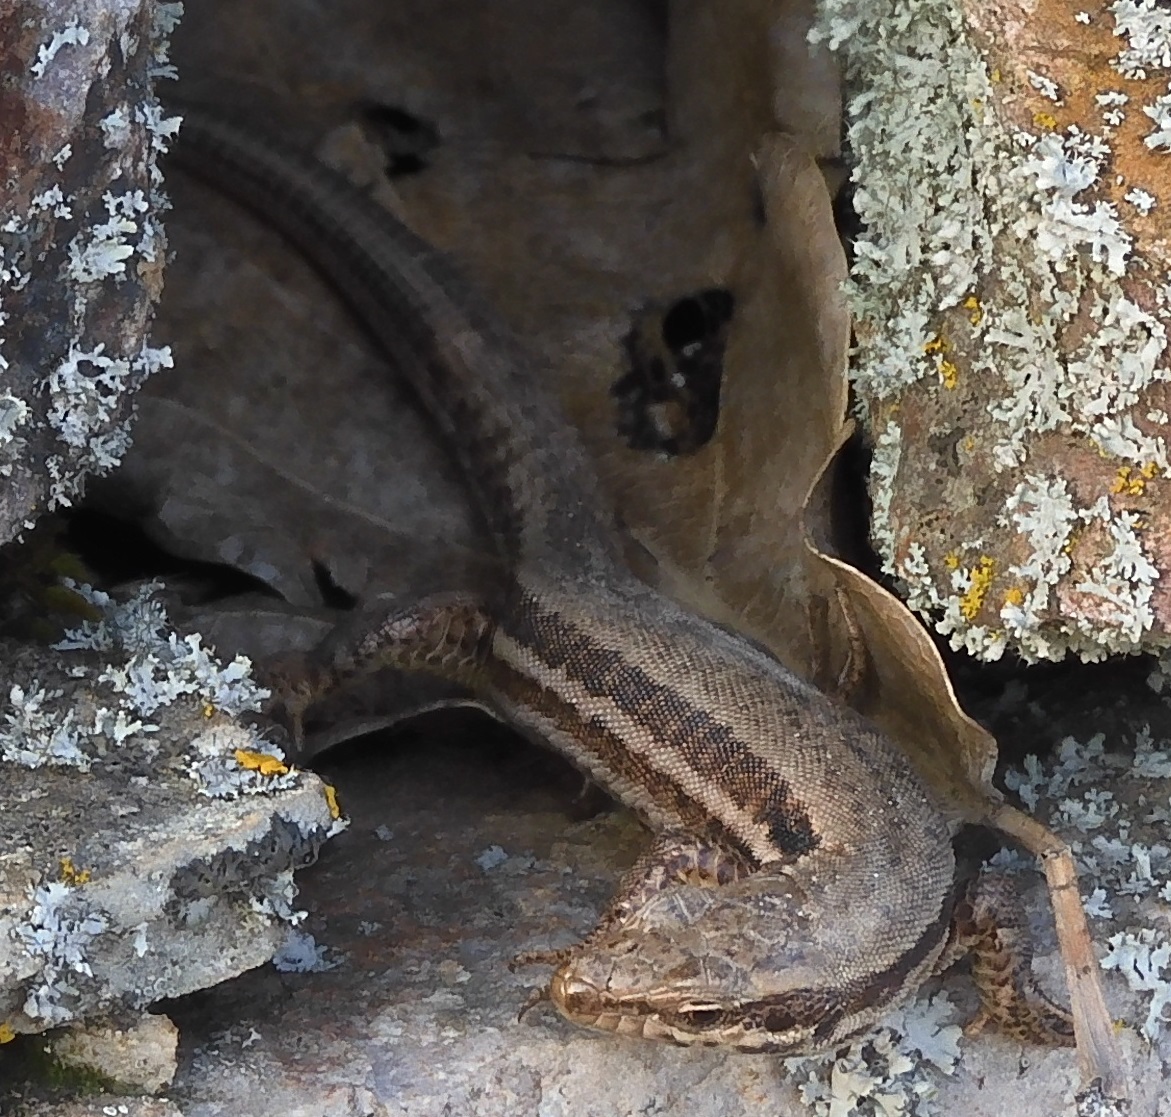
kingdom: Animalia
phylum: Chordata
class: Squamata
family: Lacertidae
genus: Podarcis
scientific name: Podarcis muralis
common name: Common wall lizard
